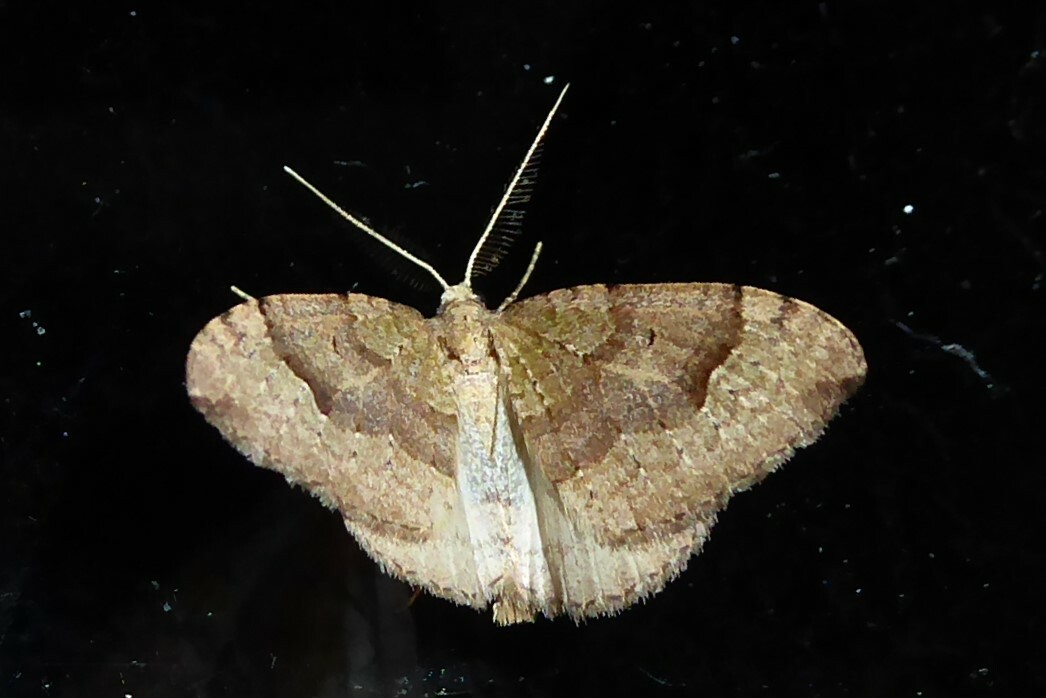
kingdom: Animalia
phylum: Arthropoda
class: Insecta
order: Lepidoptera
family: Geometridae
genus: Epyaxa
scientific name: Epyaxa rosearia
